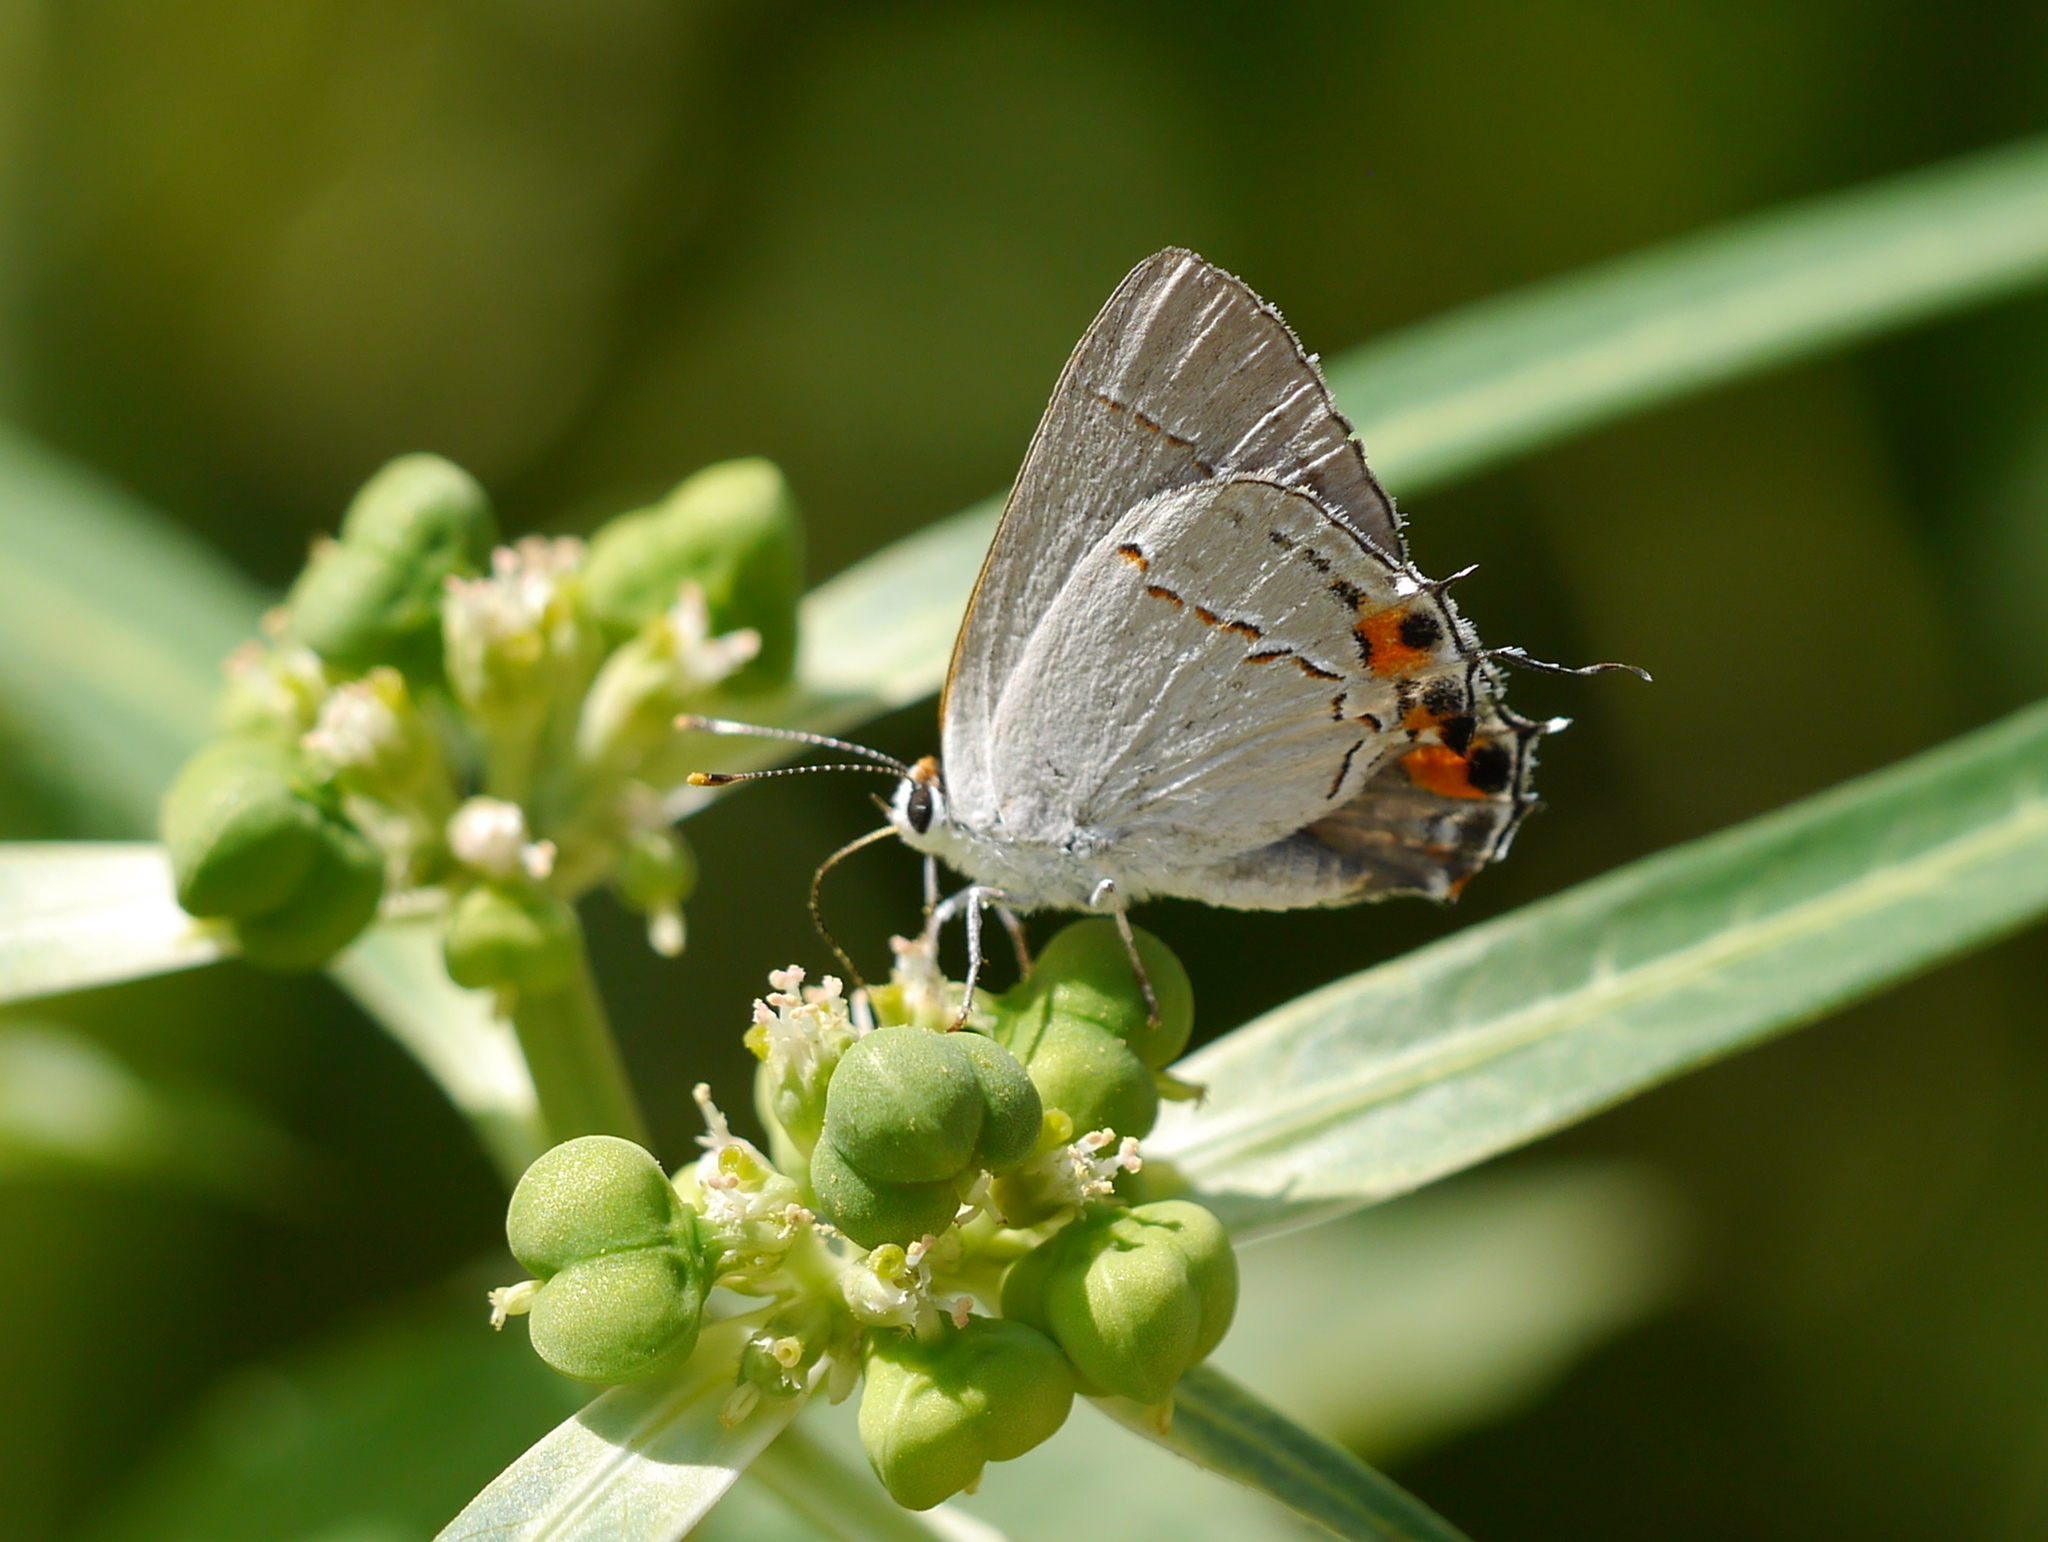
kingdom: Animalia
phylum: Arthropoda
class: Insecta
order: Lepidoptera
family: Lycaenidae
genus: Strymon
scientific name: Strymon melinus
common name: Gray hairstreak
